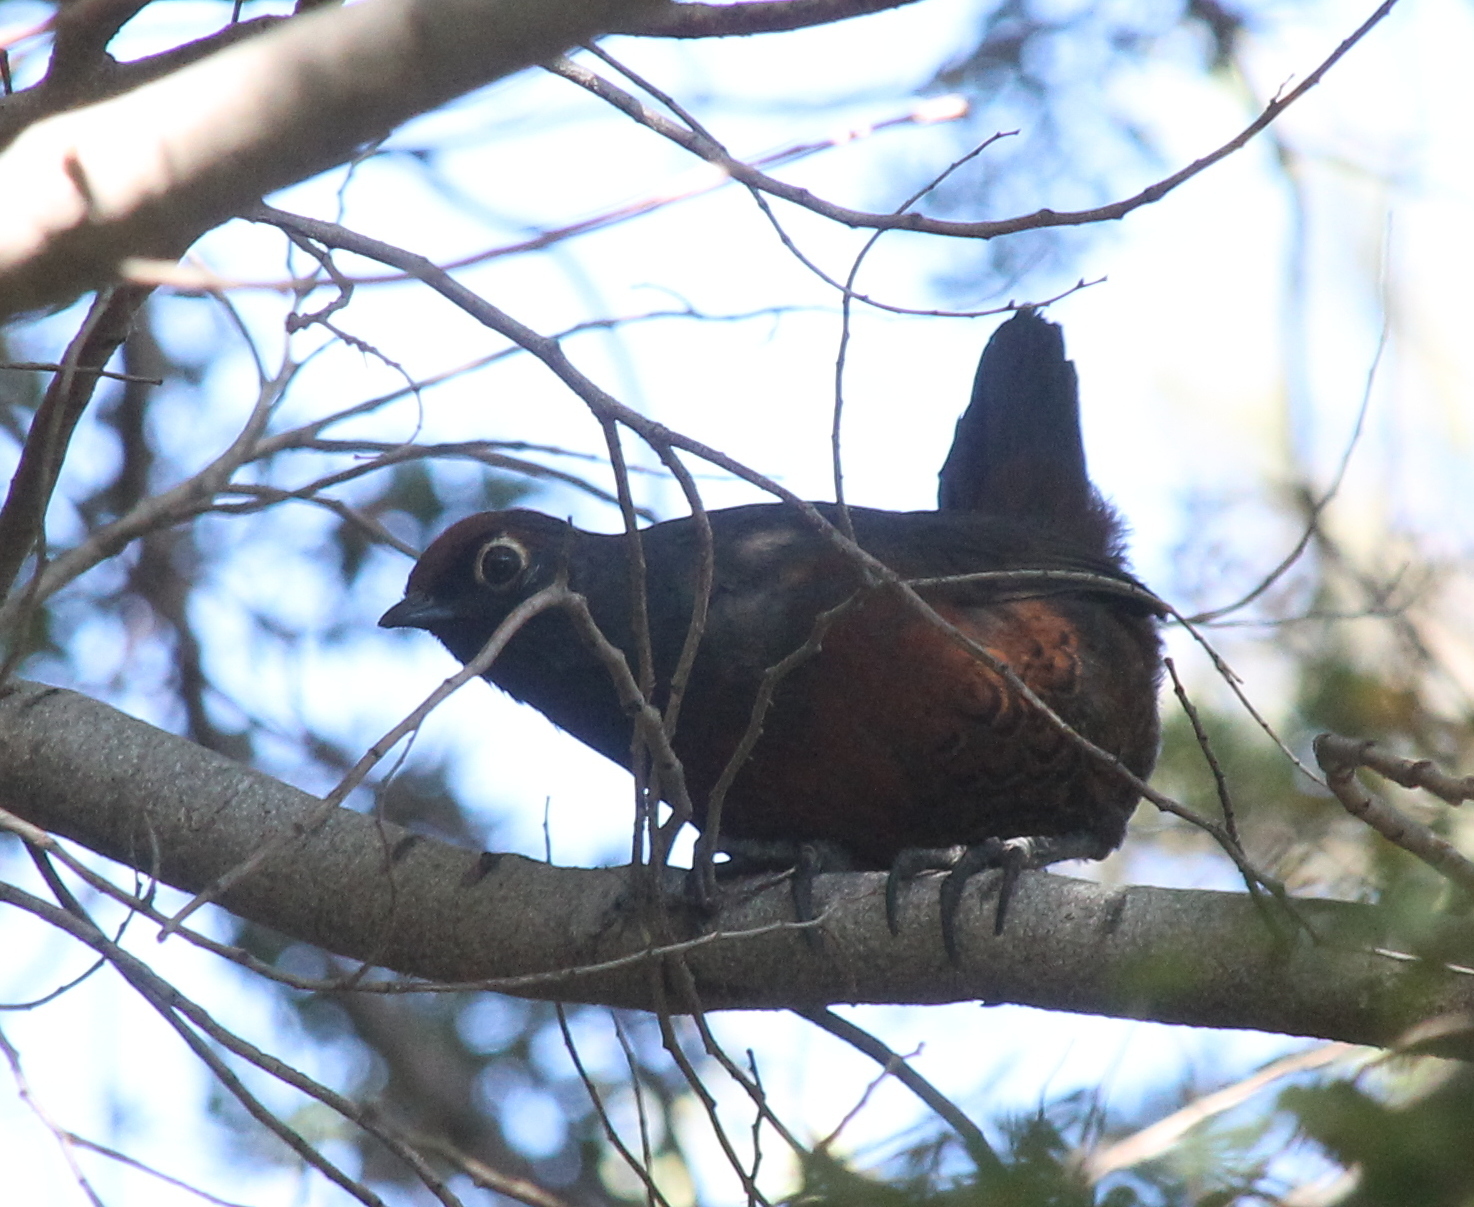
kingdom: Animalia
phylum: Chordata
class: Aves
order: Passeriformes
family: Rhinocryptidae
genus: Pteroptochos
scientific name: Pteroptochos tarnii
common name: Black-throated huet-huet
